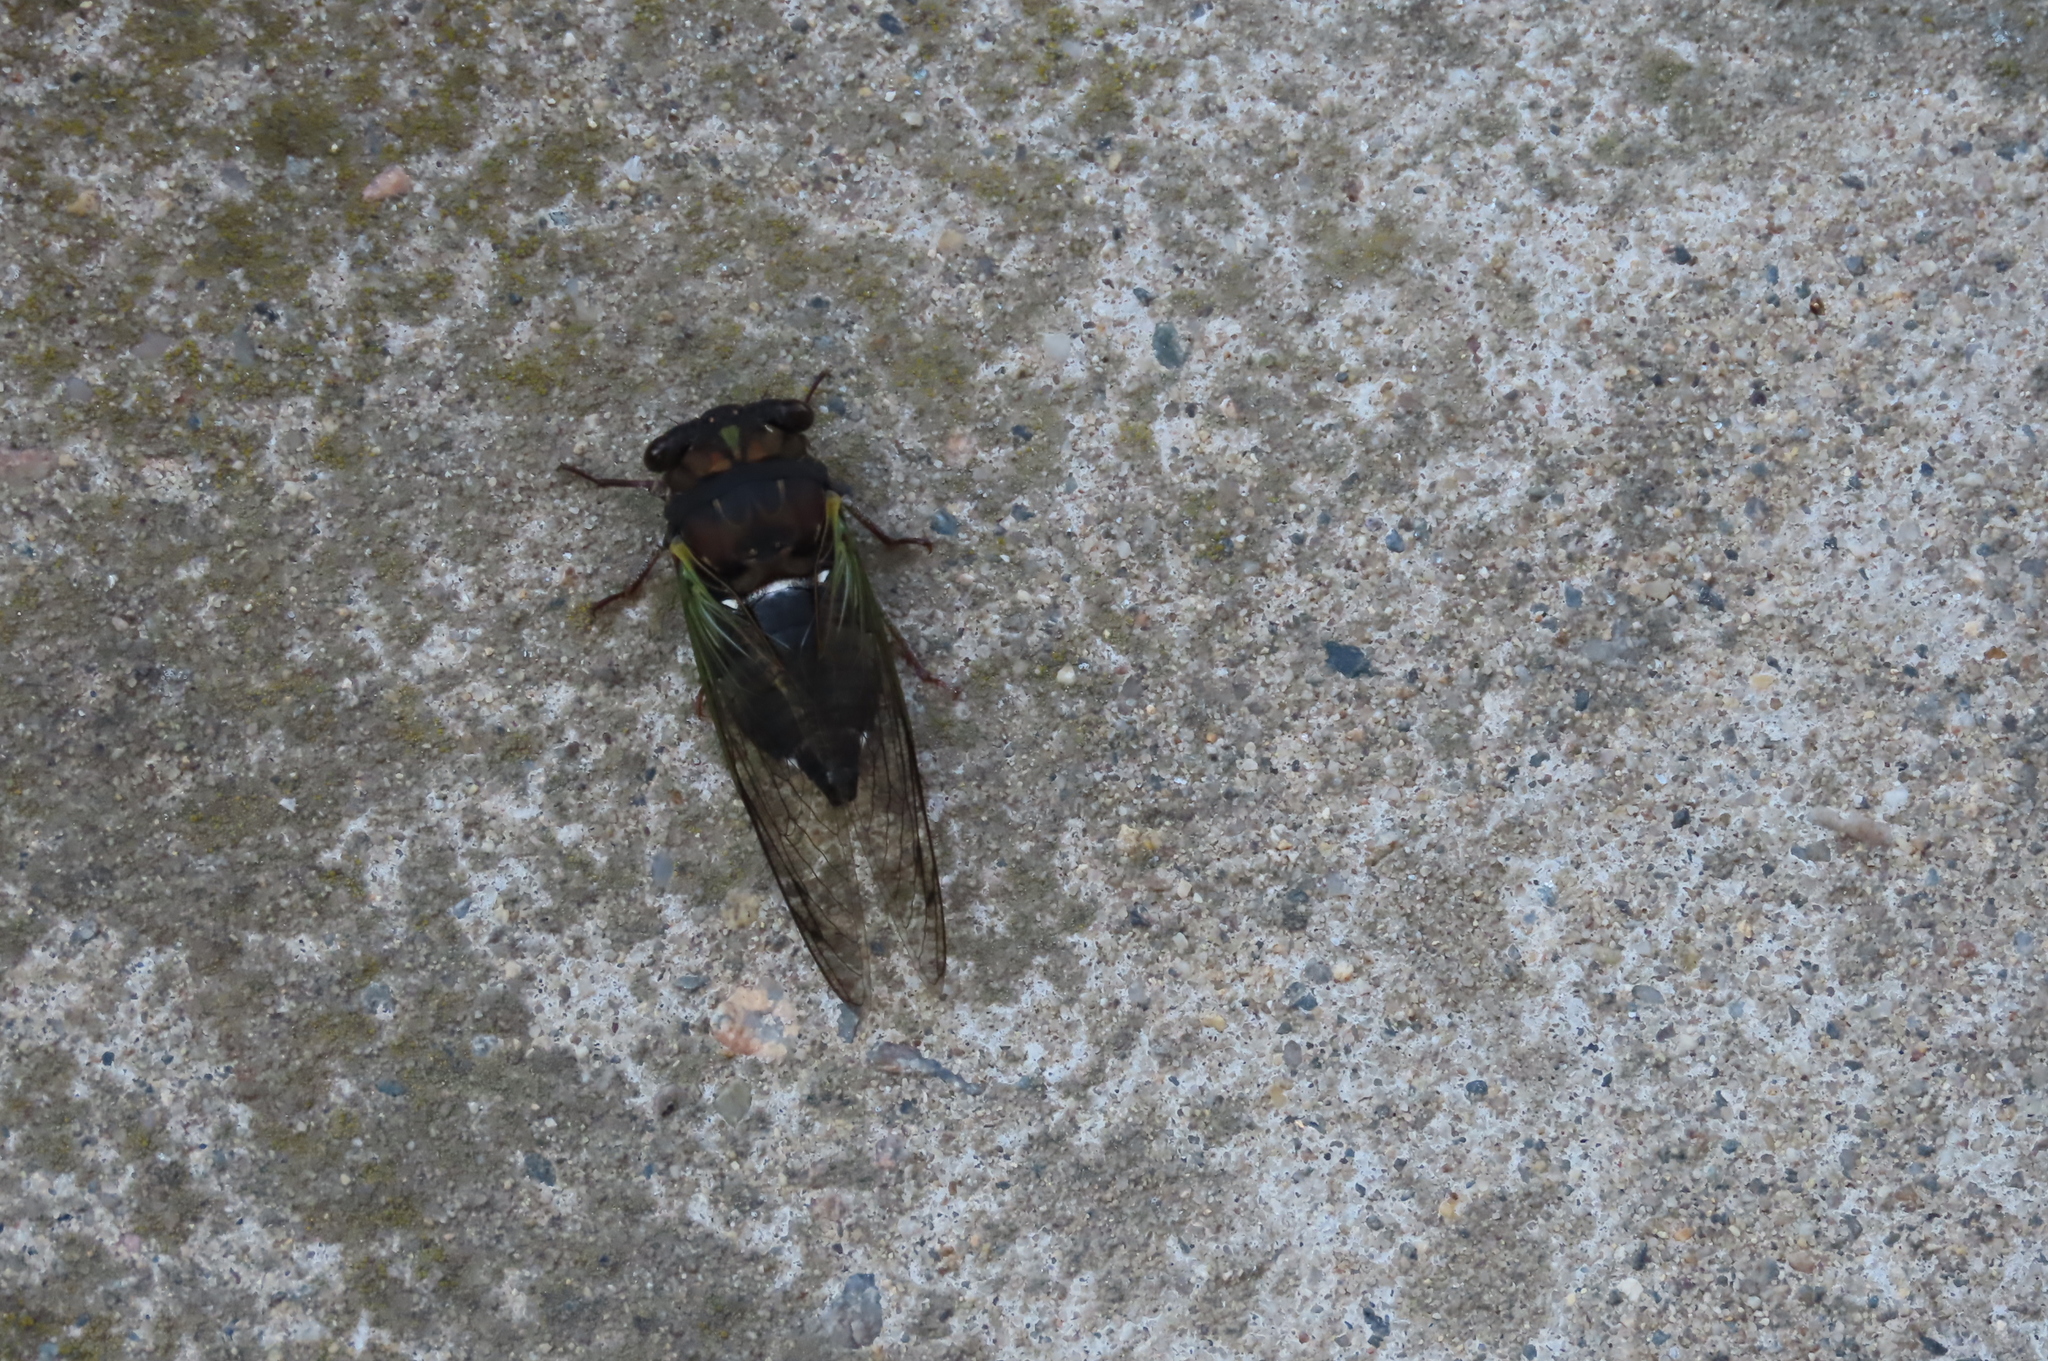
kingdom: Animalia
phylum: Arthropoda
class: Insecta
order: Hemiptera
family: Cicadidae
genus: Neotibicen
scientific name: Neotibicen lyricen
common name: Lyric cicada
